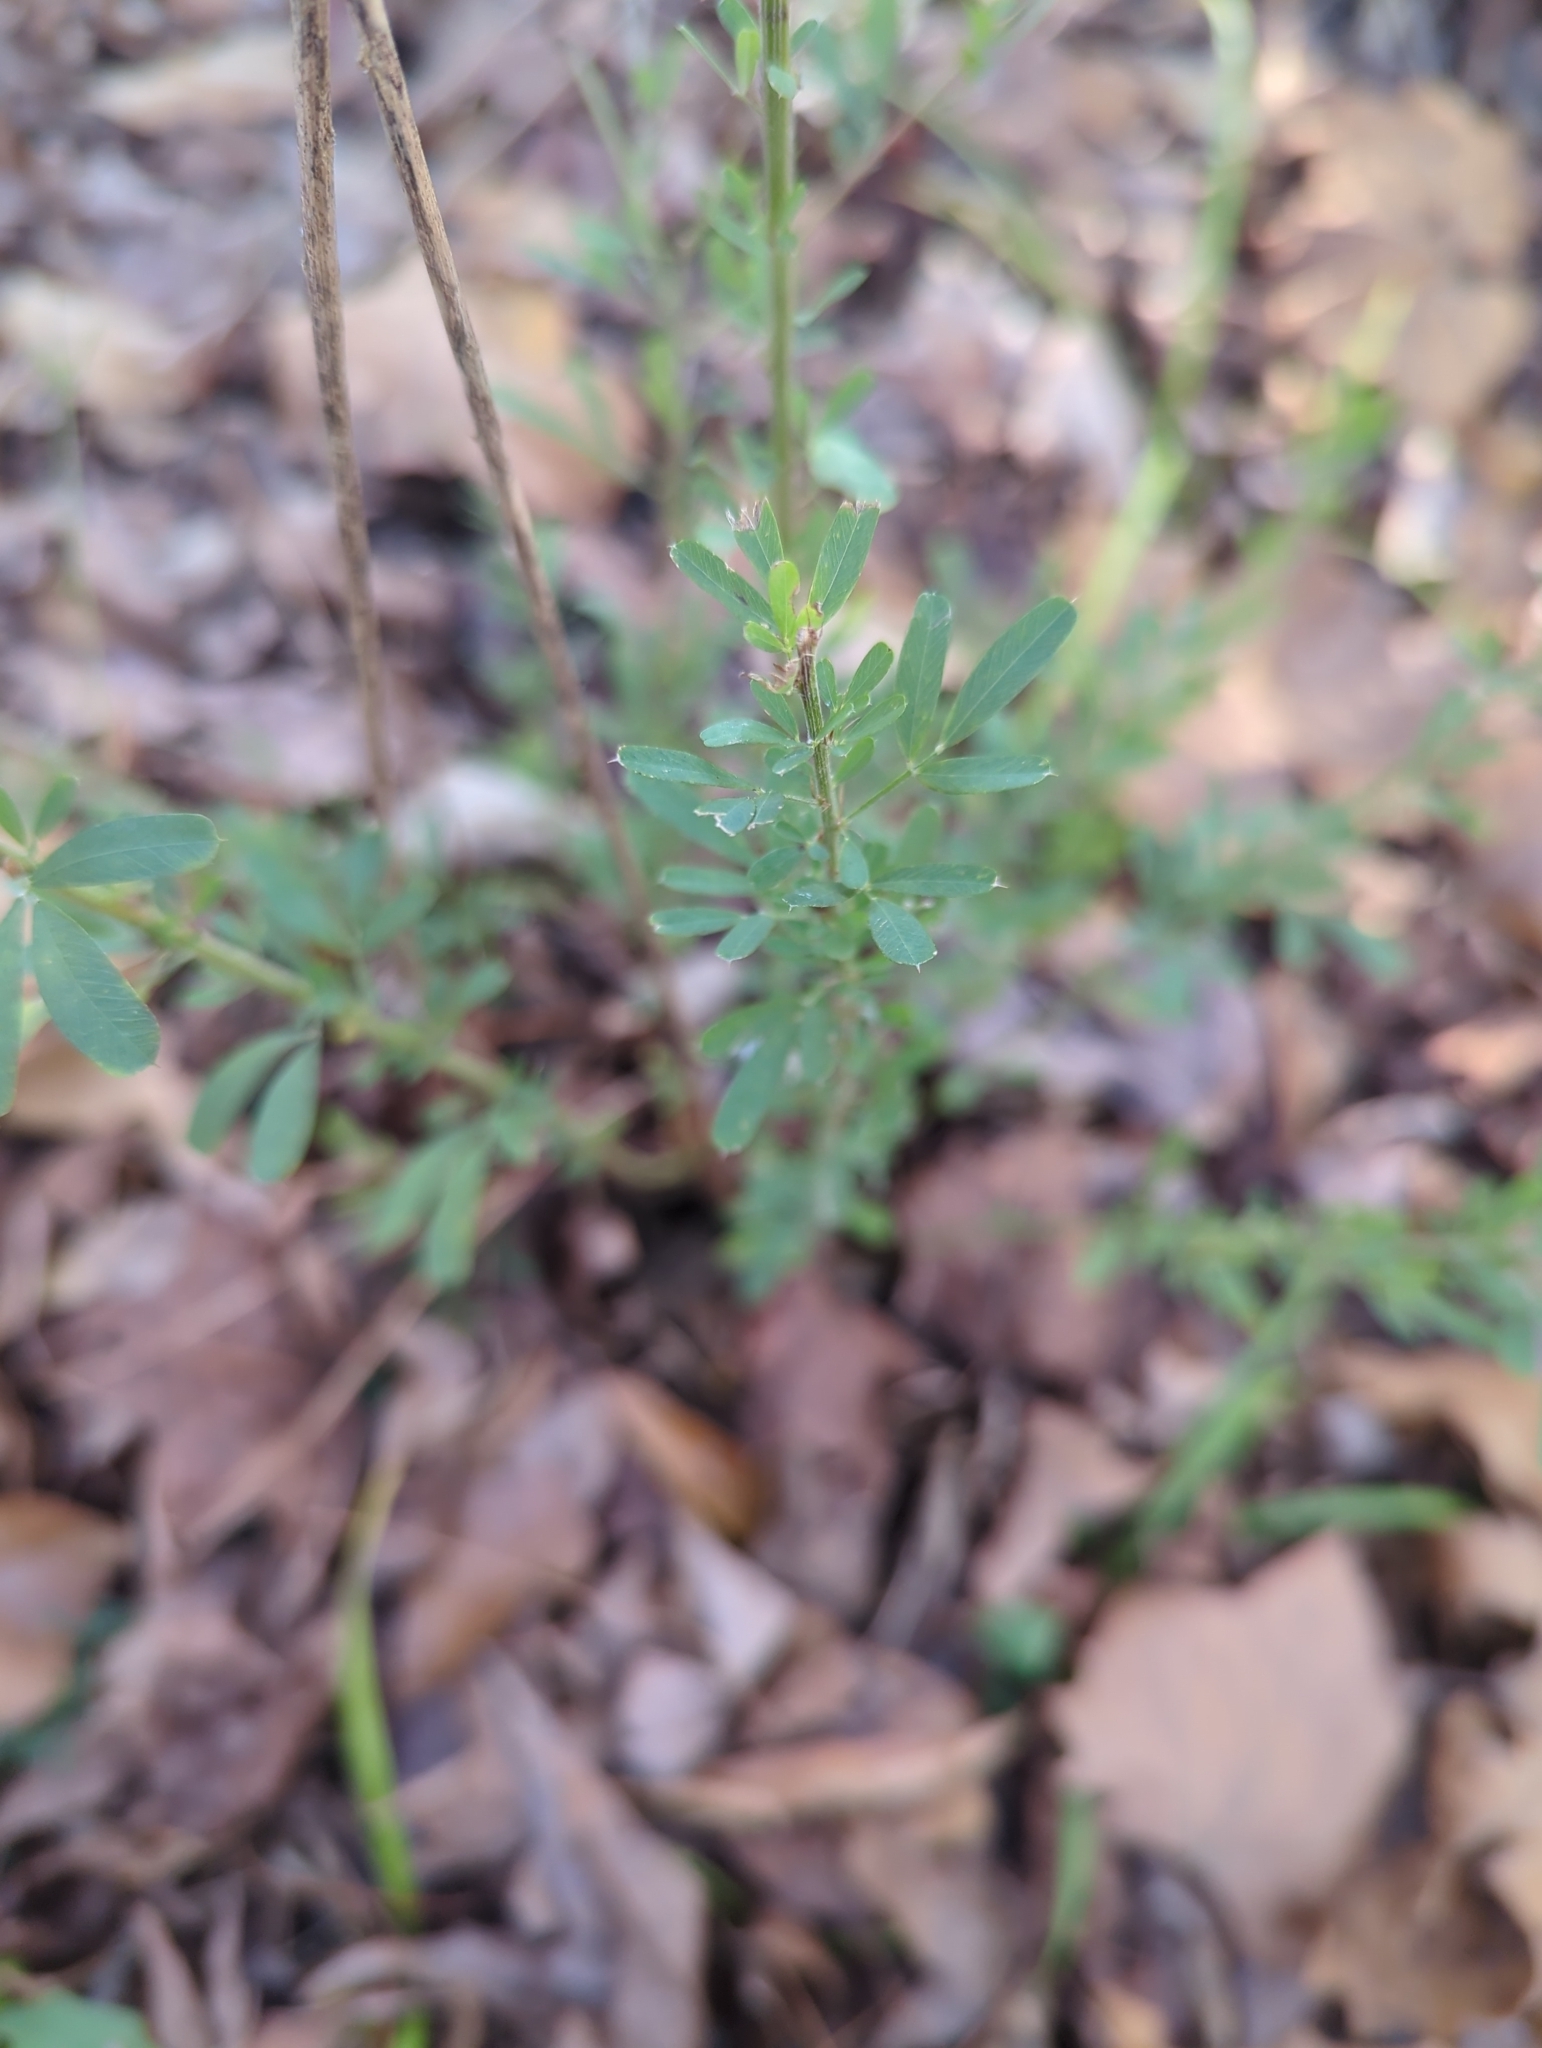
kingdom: Plantae
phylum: Tracheophyta
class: Magnoliopsida
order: Fabales
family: Fabaceae
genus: Lespedeza
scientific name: Lespedeza cuneata
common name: Chinese bush-clover
